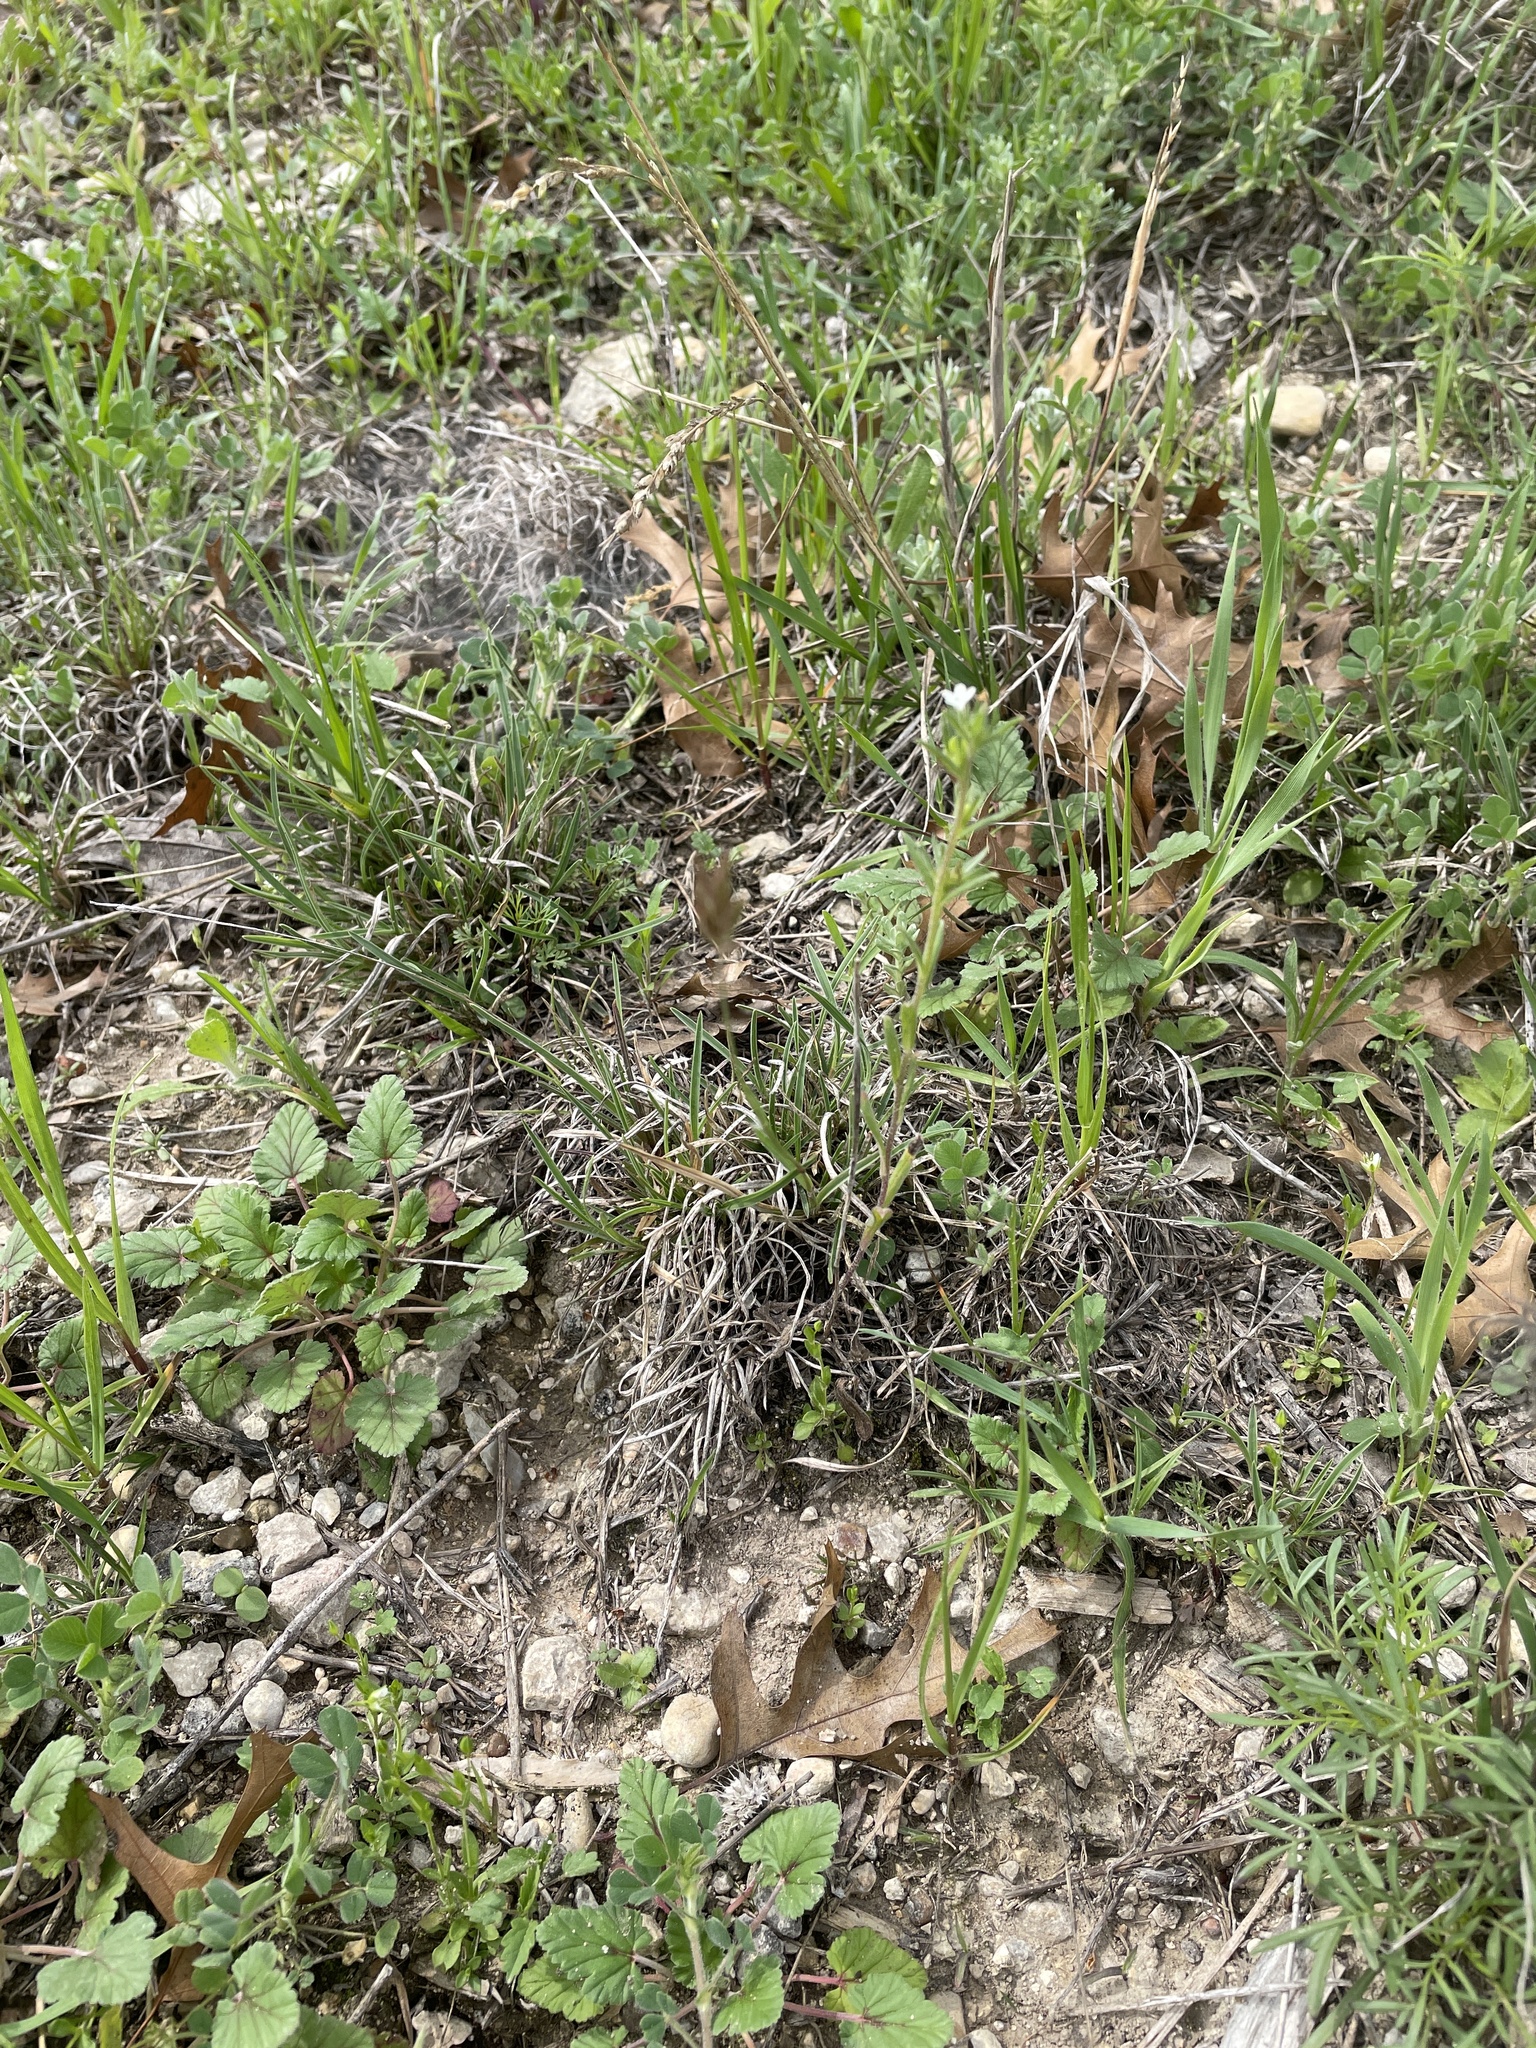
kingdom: Plantae
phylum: Tracheophyta
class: Liliopsida
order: Poales
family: Poaceae
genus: Erioneuron
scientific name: Erioneuron pilosum
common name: Hairy woolly grass
